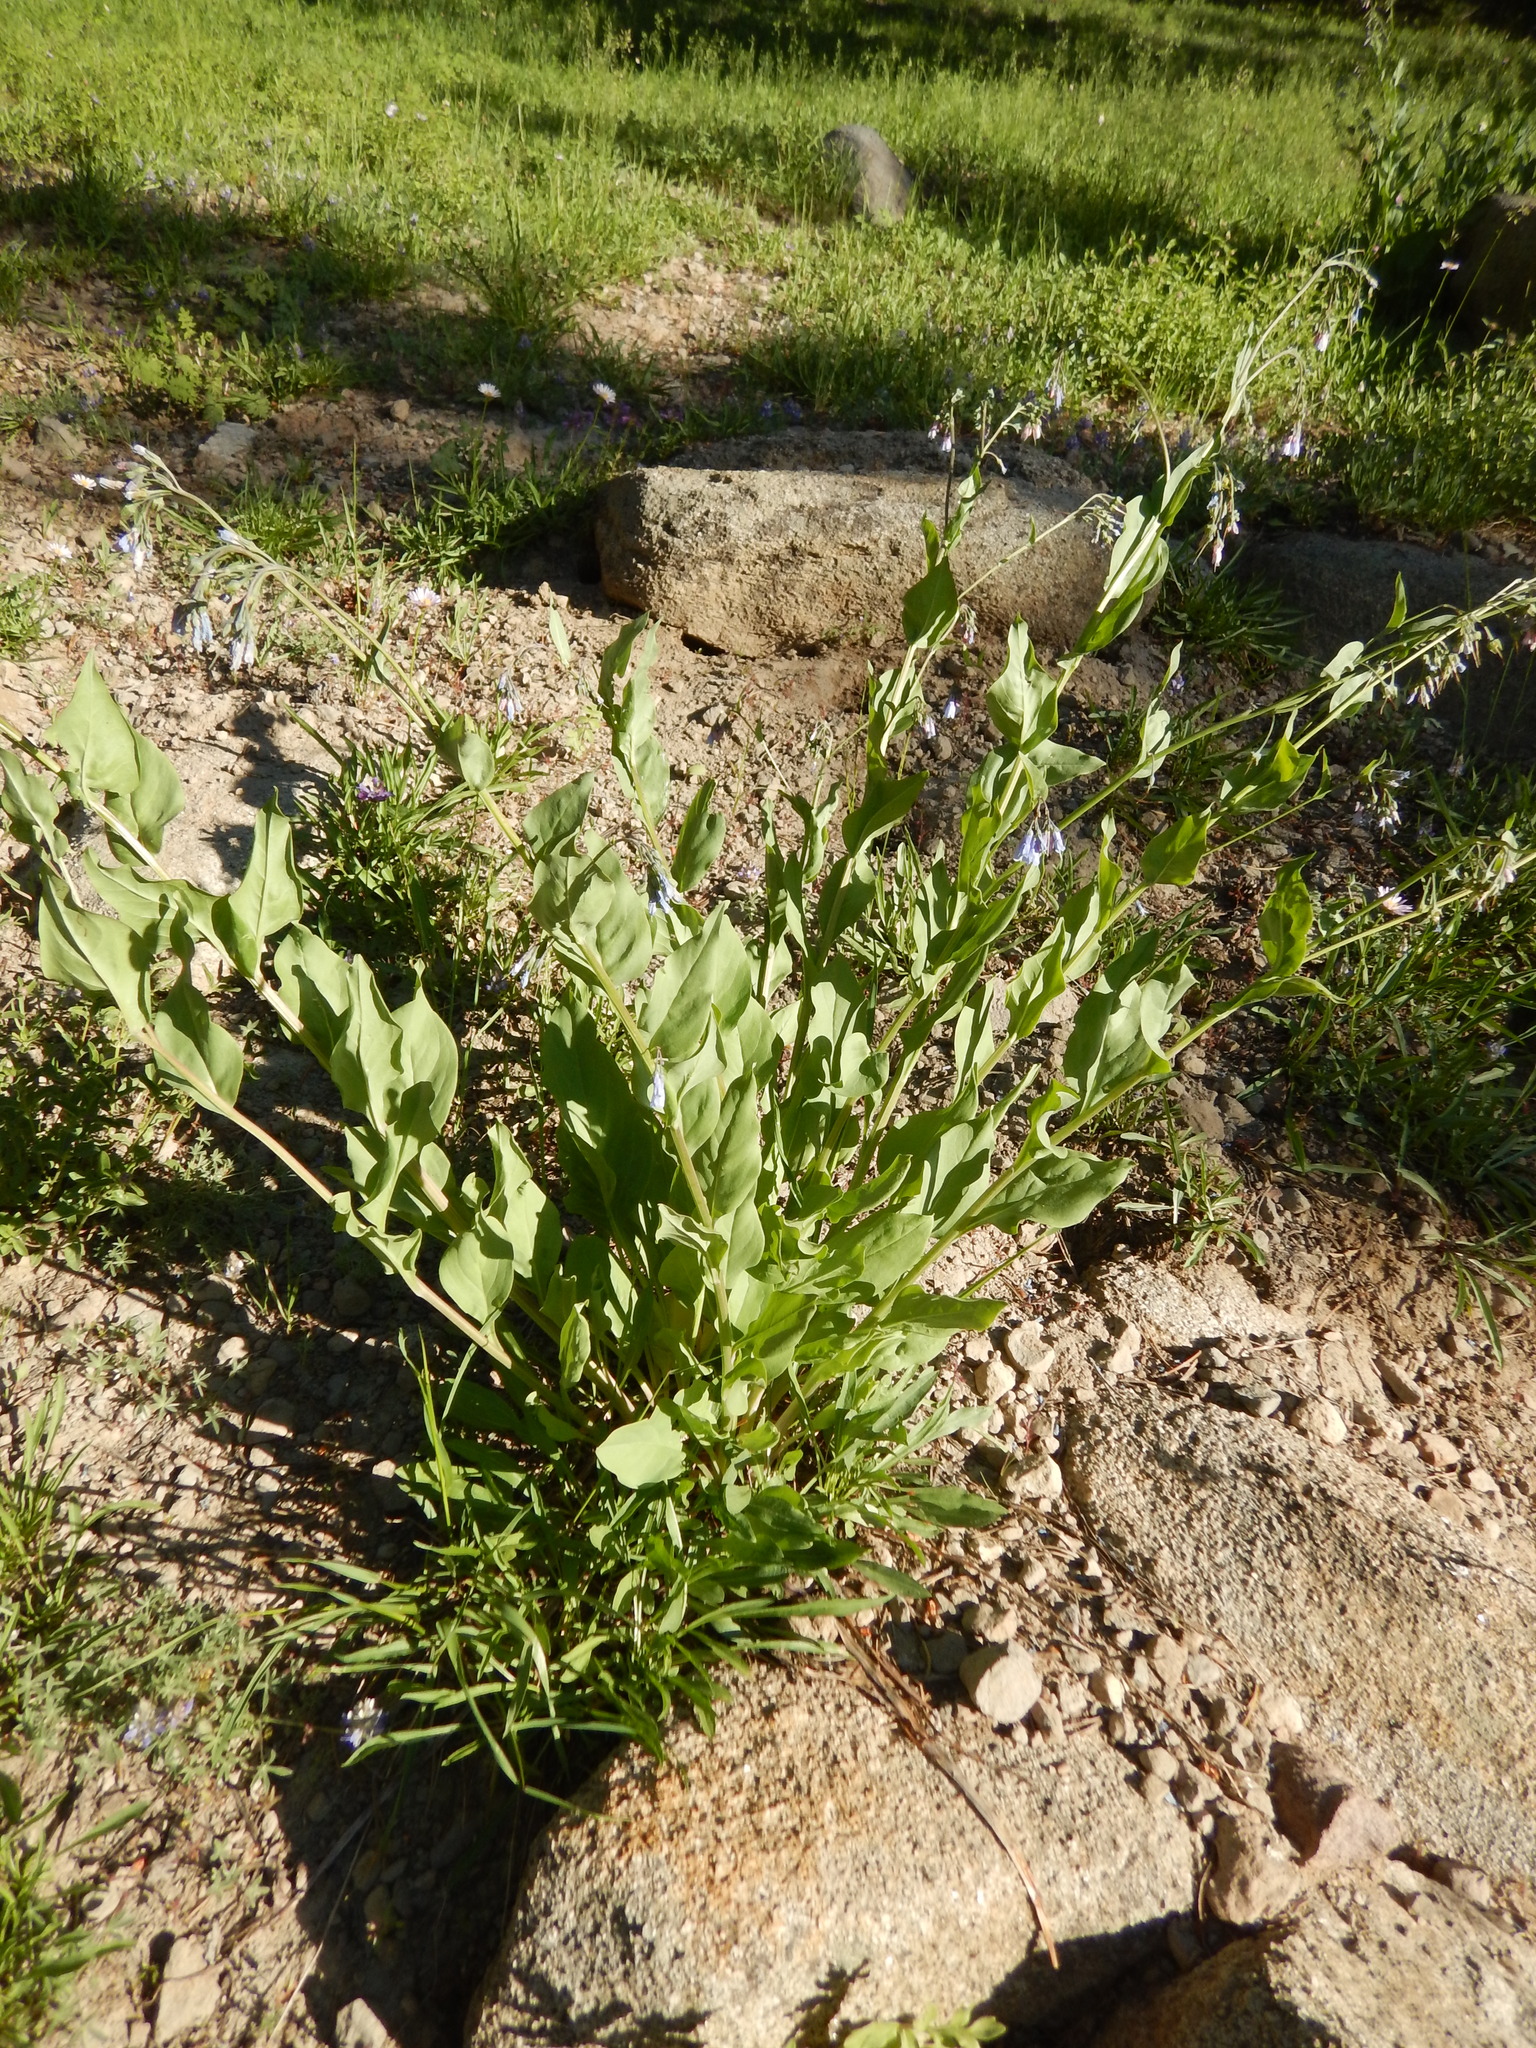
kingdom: Plantae
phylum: Tracheophyta
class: Magnoliopsida
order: Boraginales
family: Boraginaceae
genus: Mertensia
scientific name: Mertensia ciliata
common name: Tall chiming-bells
